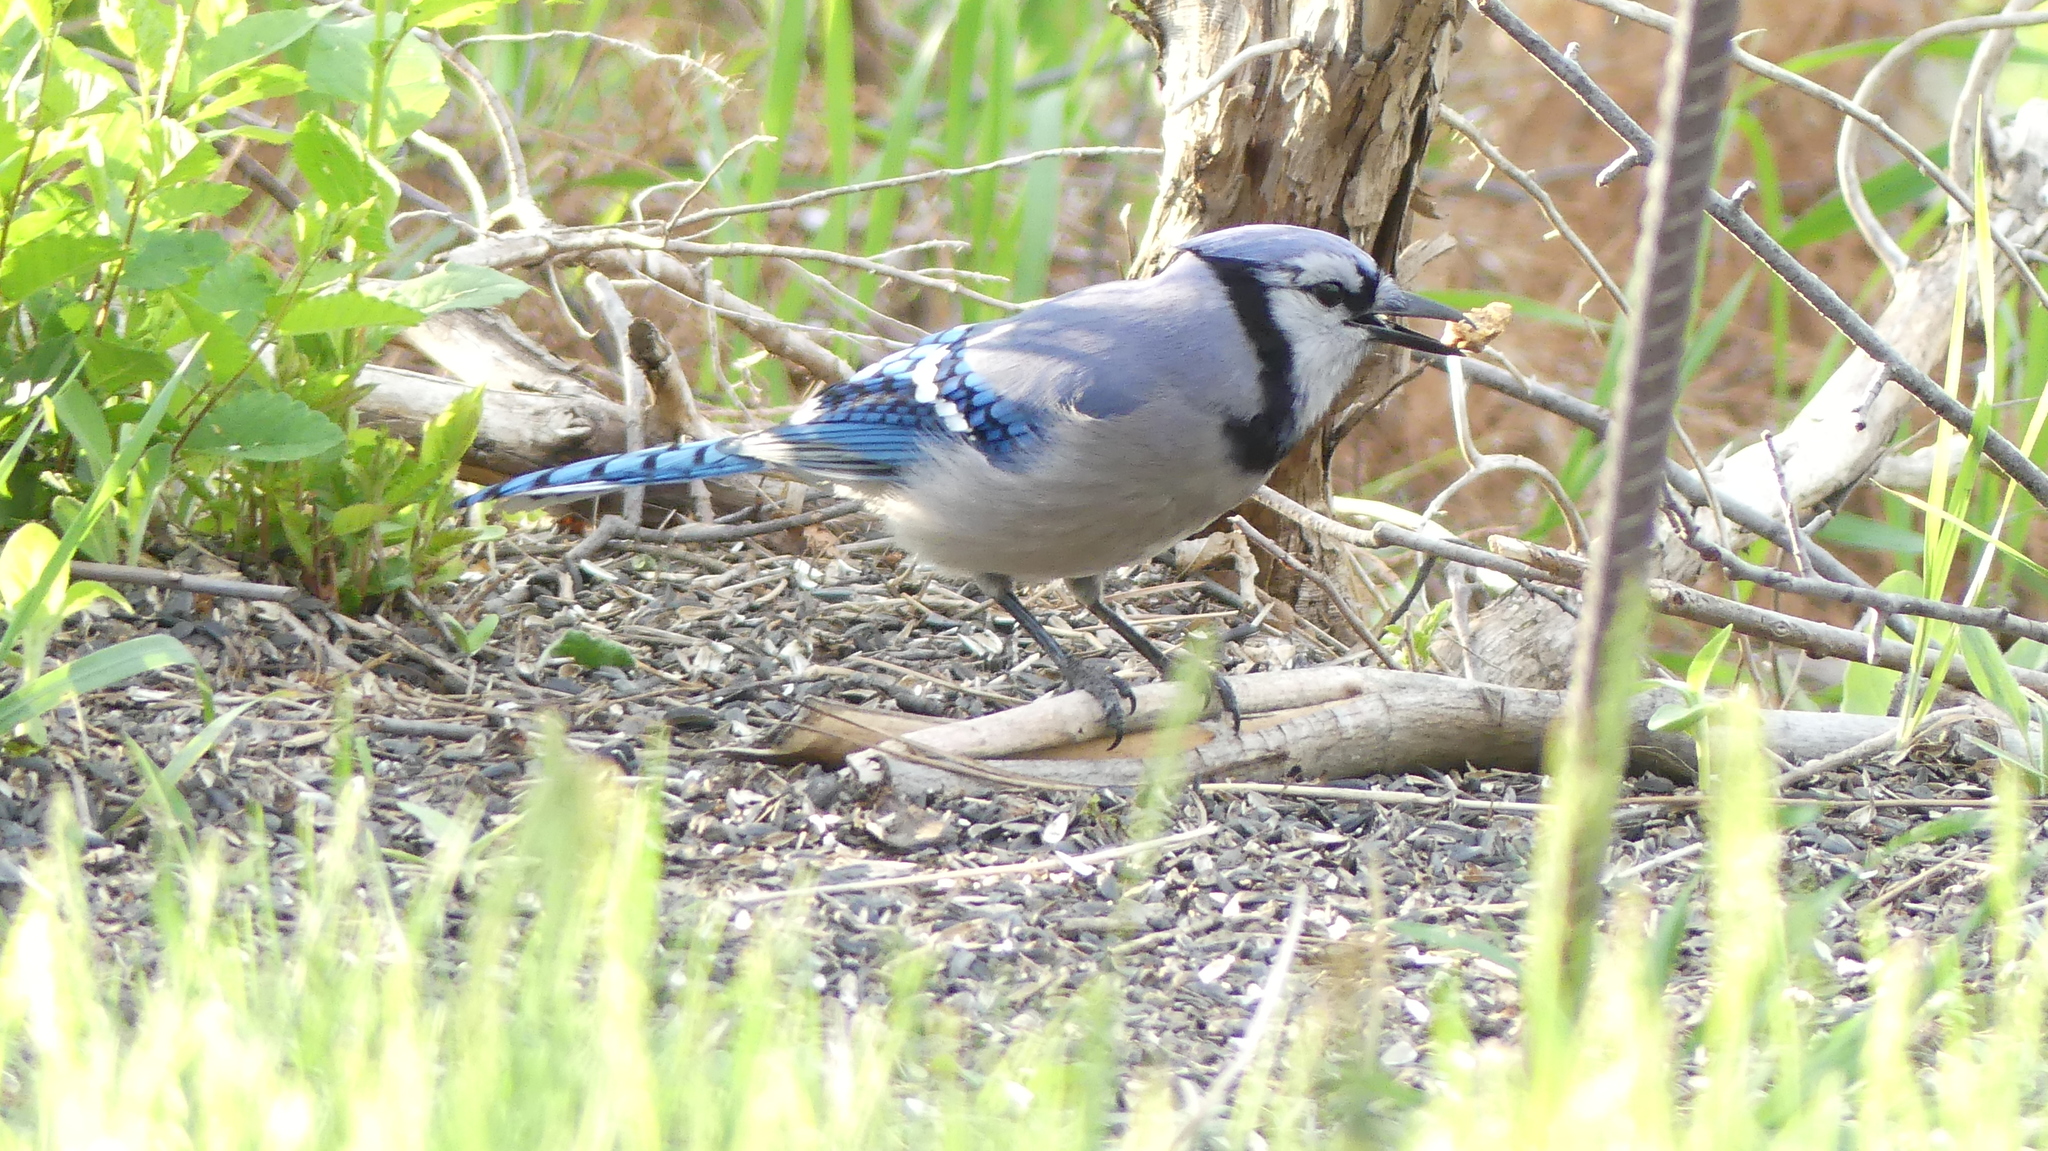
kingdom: Animalia
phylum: Chordata
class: Aves
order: Passeriformes
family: Corvidae
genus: Cyanocitta
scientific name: Cyanocitta cristata
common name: Blue jay
